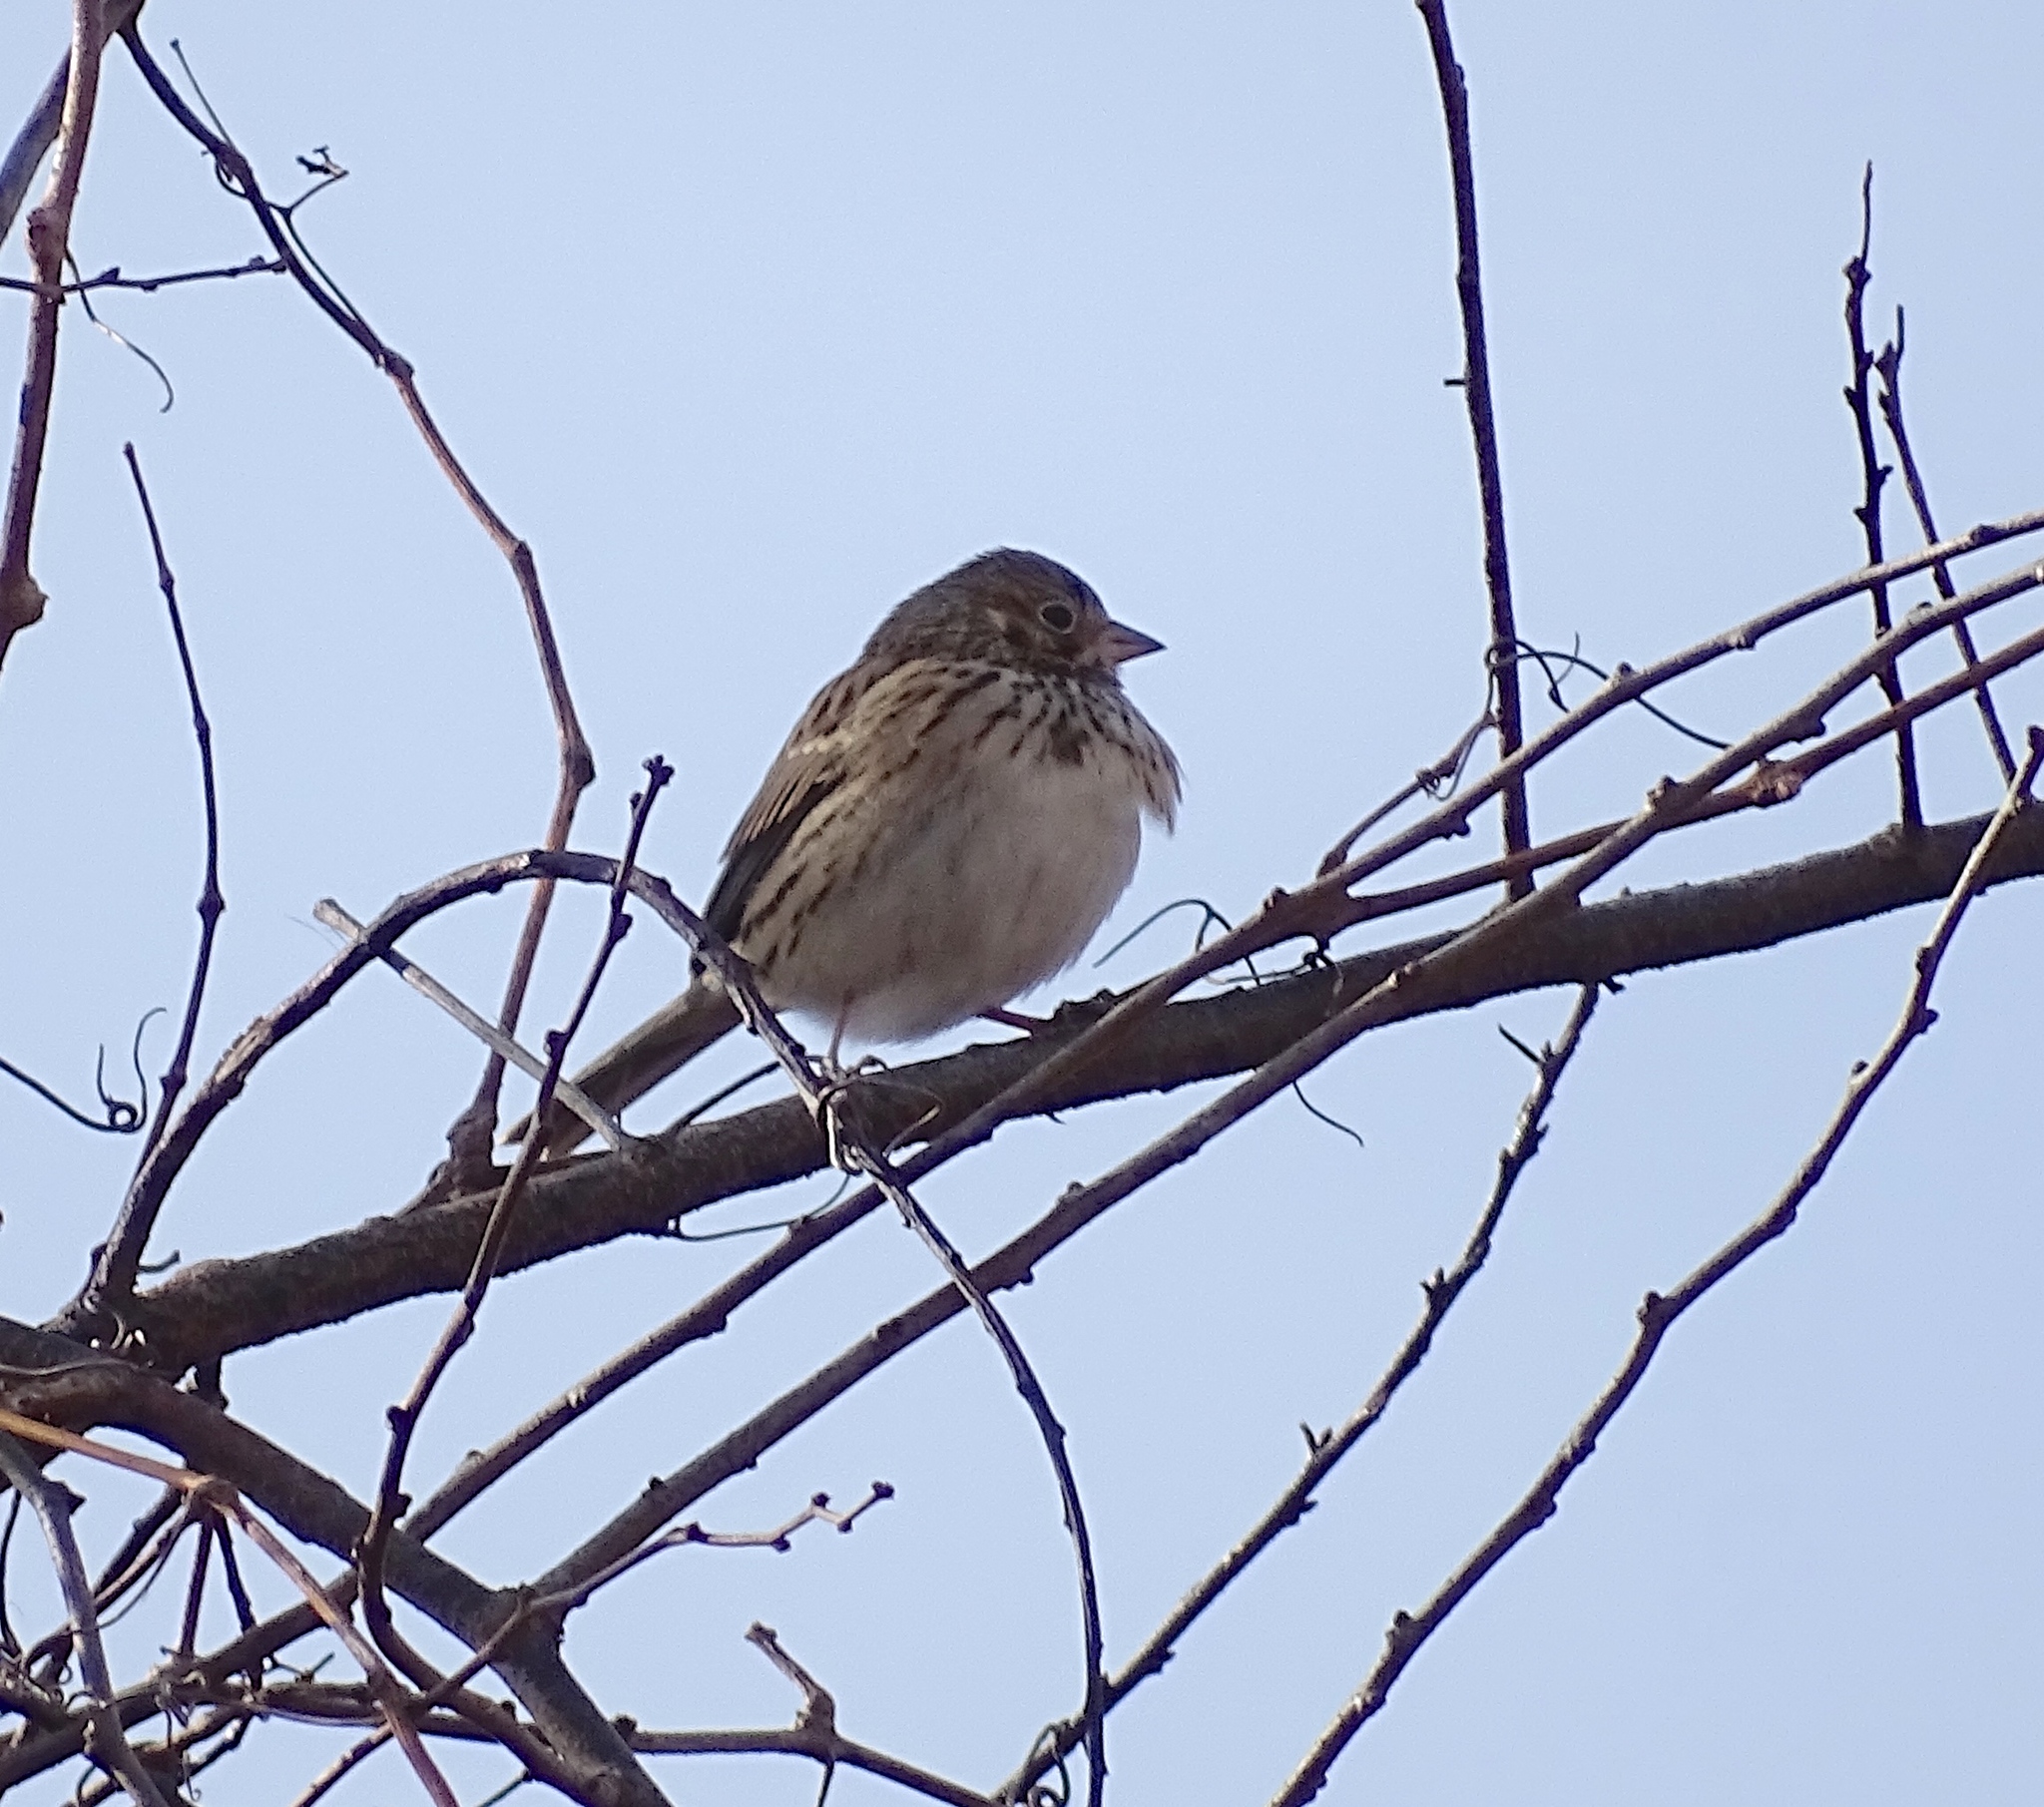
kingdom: Animalia
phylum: Chordata
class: Aves
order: Passeriformes
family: Passerellidae
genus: Pooecetes
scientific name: Pooecetes gramineus
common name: Vesper sparrow
